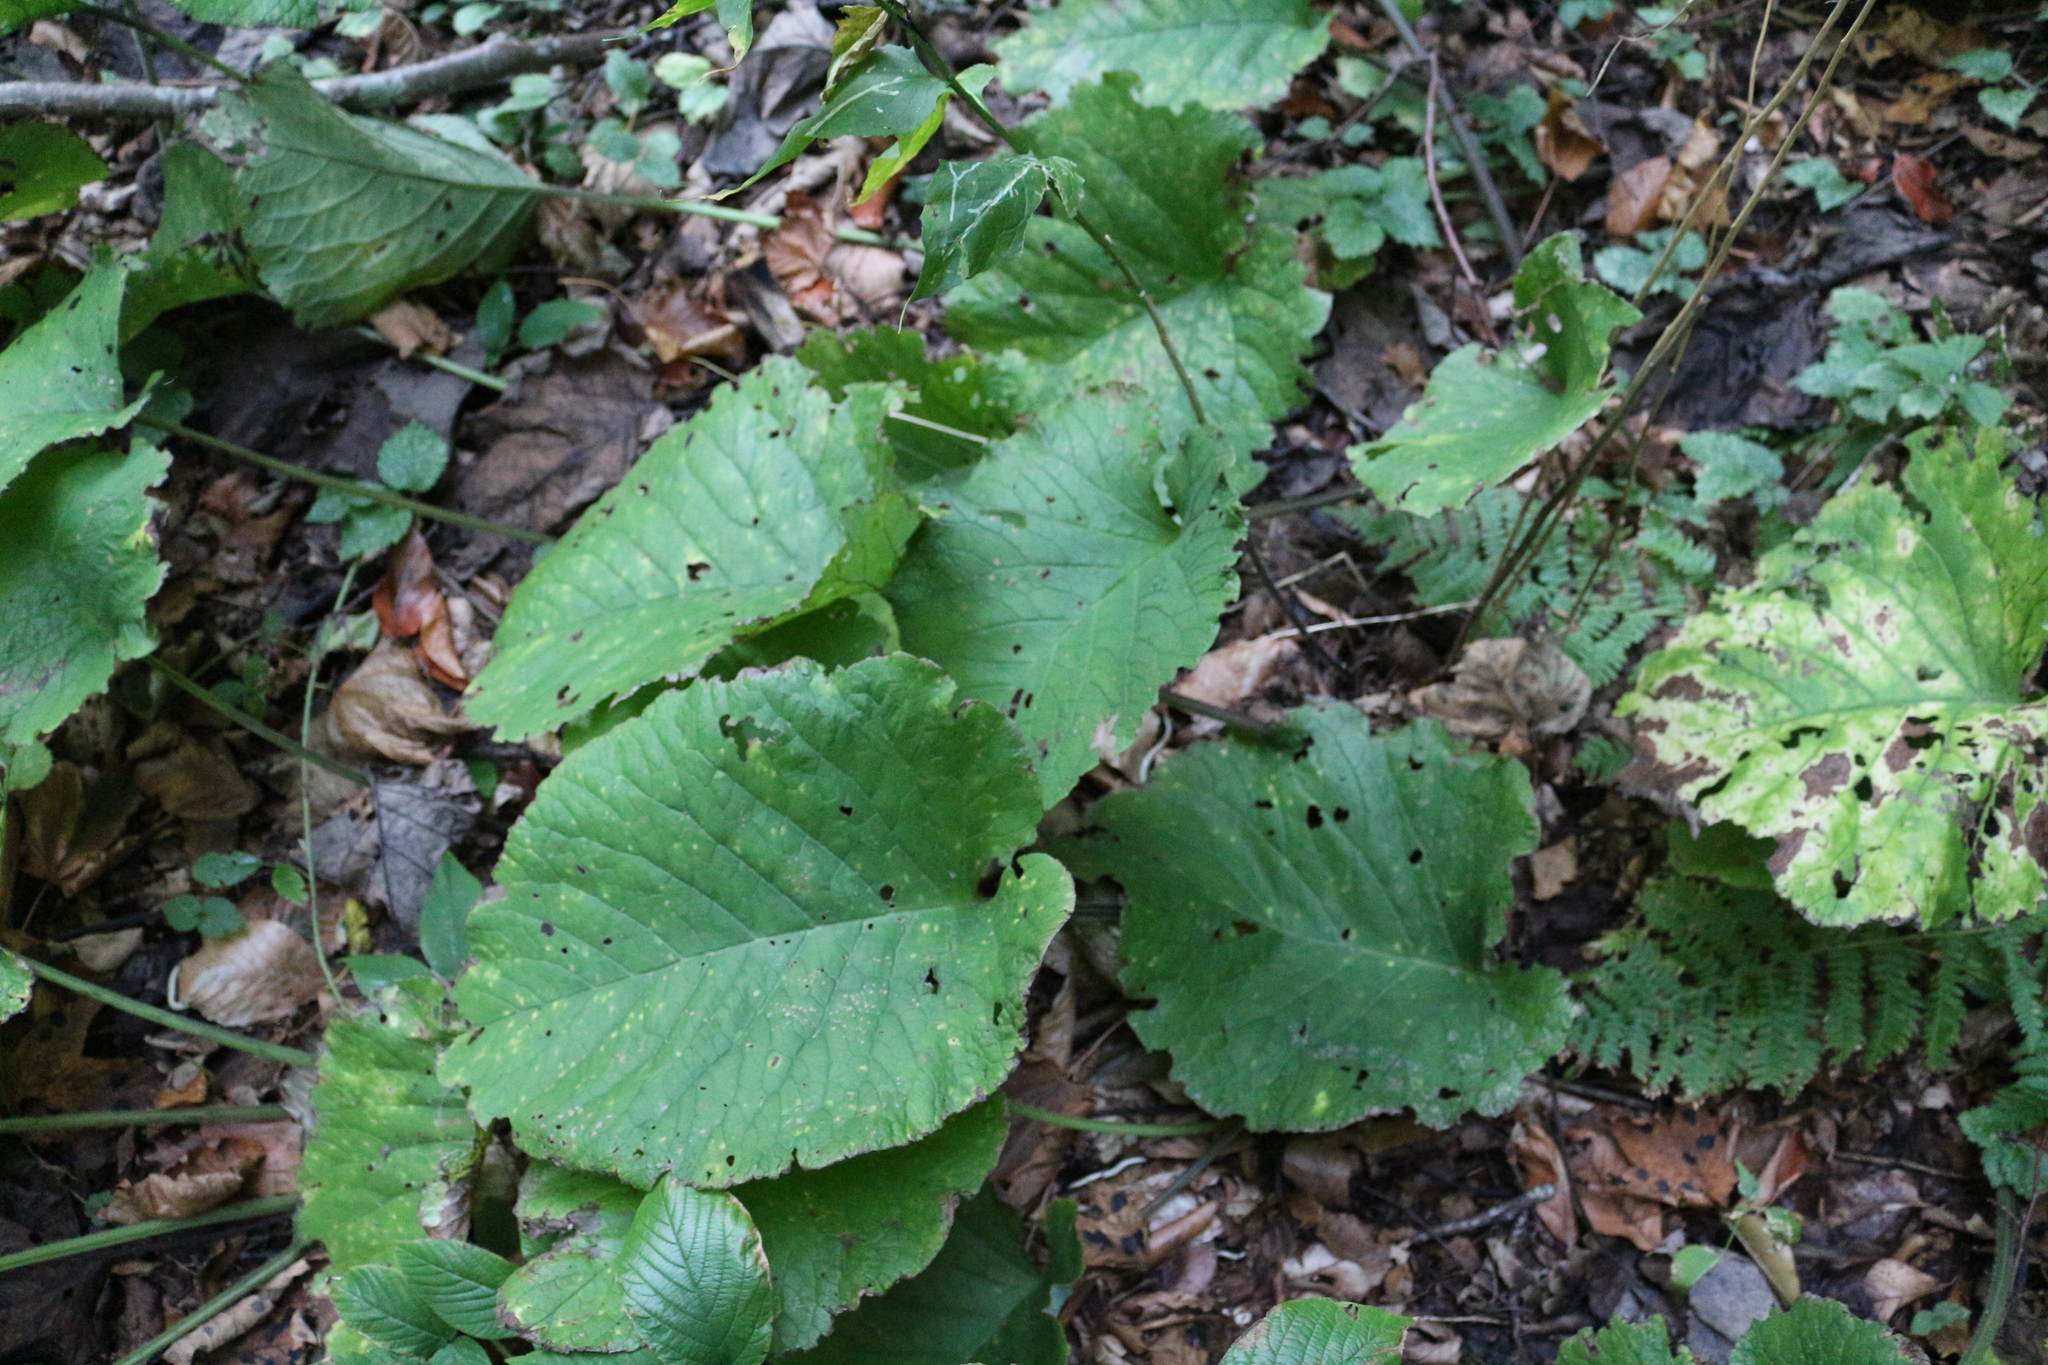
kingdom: Plantae
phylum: Tracheophyta
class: Magnoliopsida
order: Boraginales
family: Boraginaceae
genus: Trachystemon
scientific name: Trachystemon orientale
